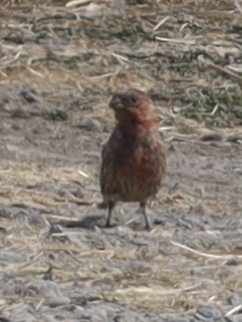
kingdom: Animalia
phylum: Chordata
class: Aves
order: Passeriformes
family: Fringillidae
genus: Haemorhous
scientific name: Haemorhous mexicanus
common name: House finch
